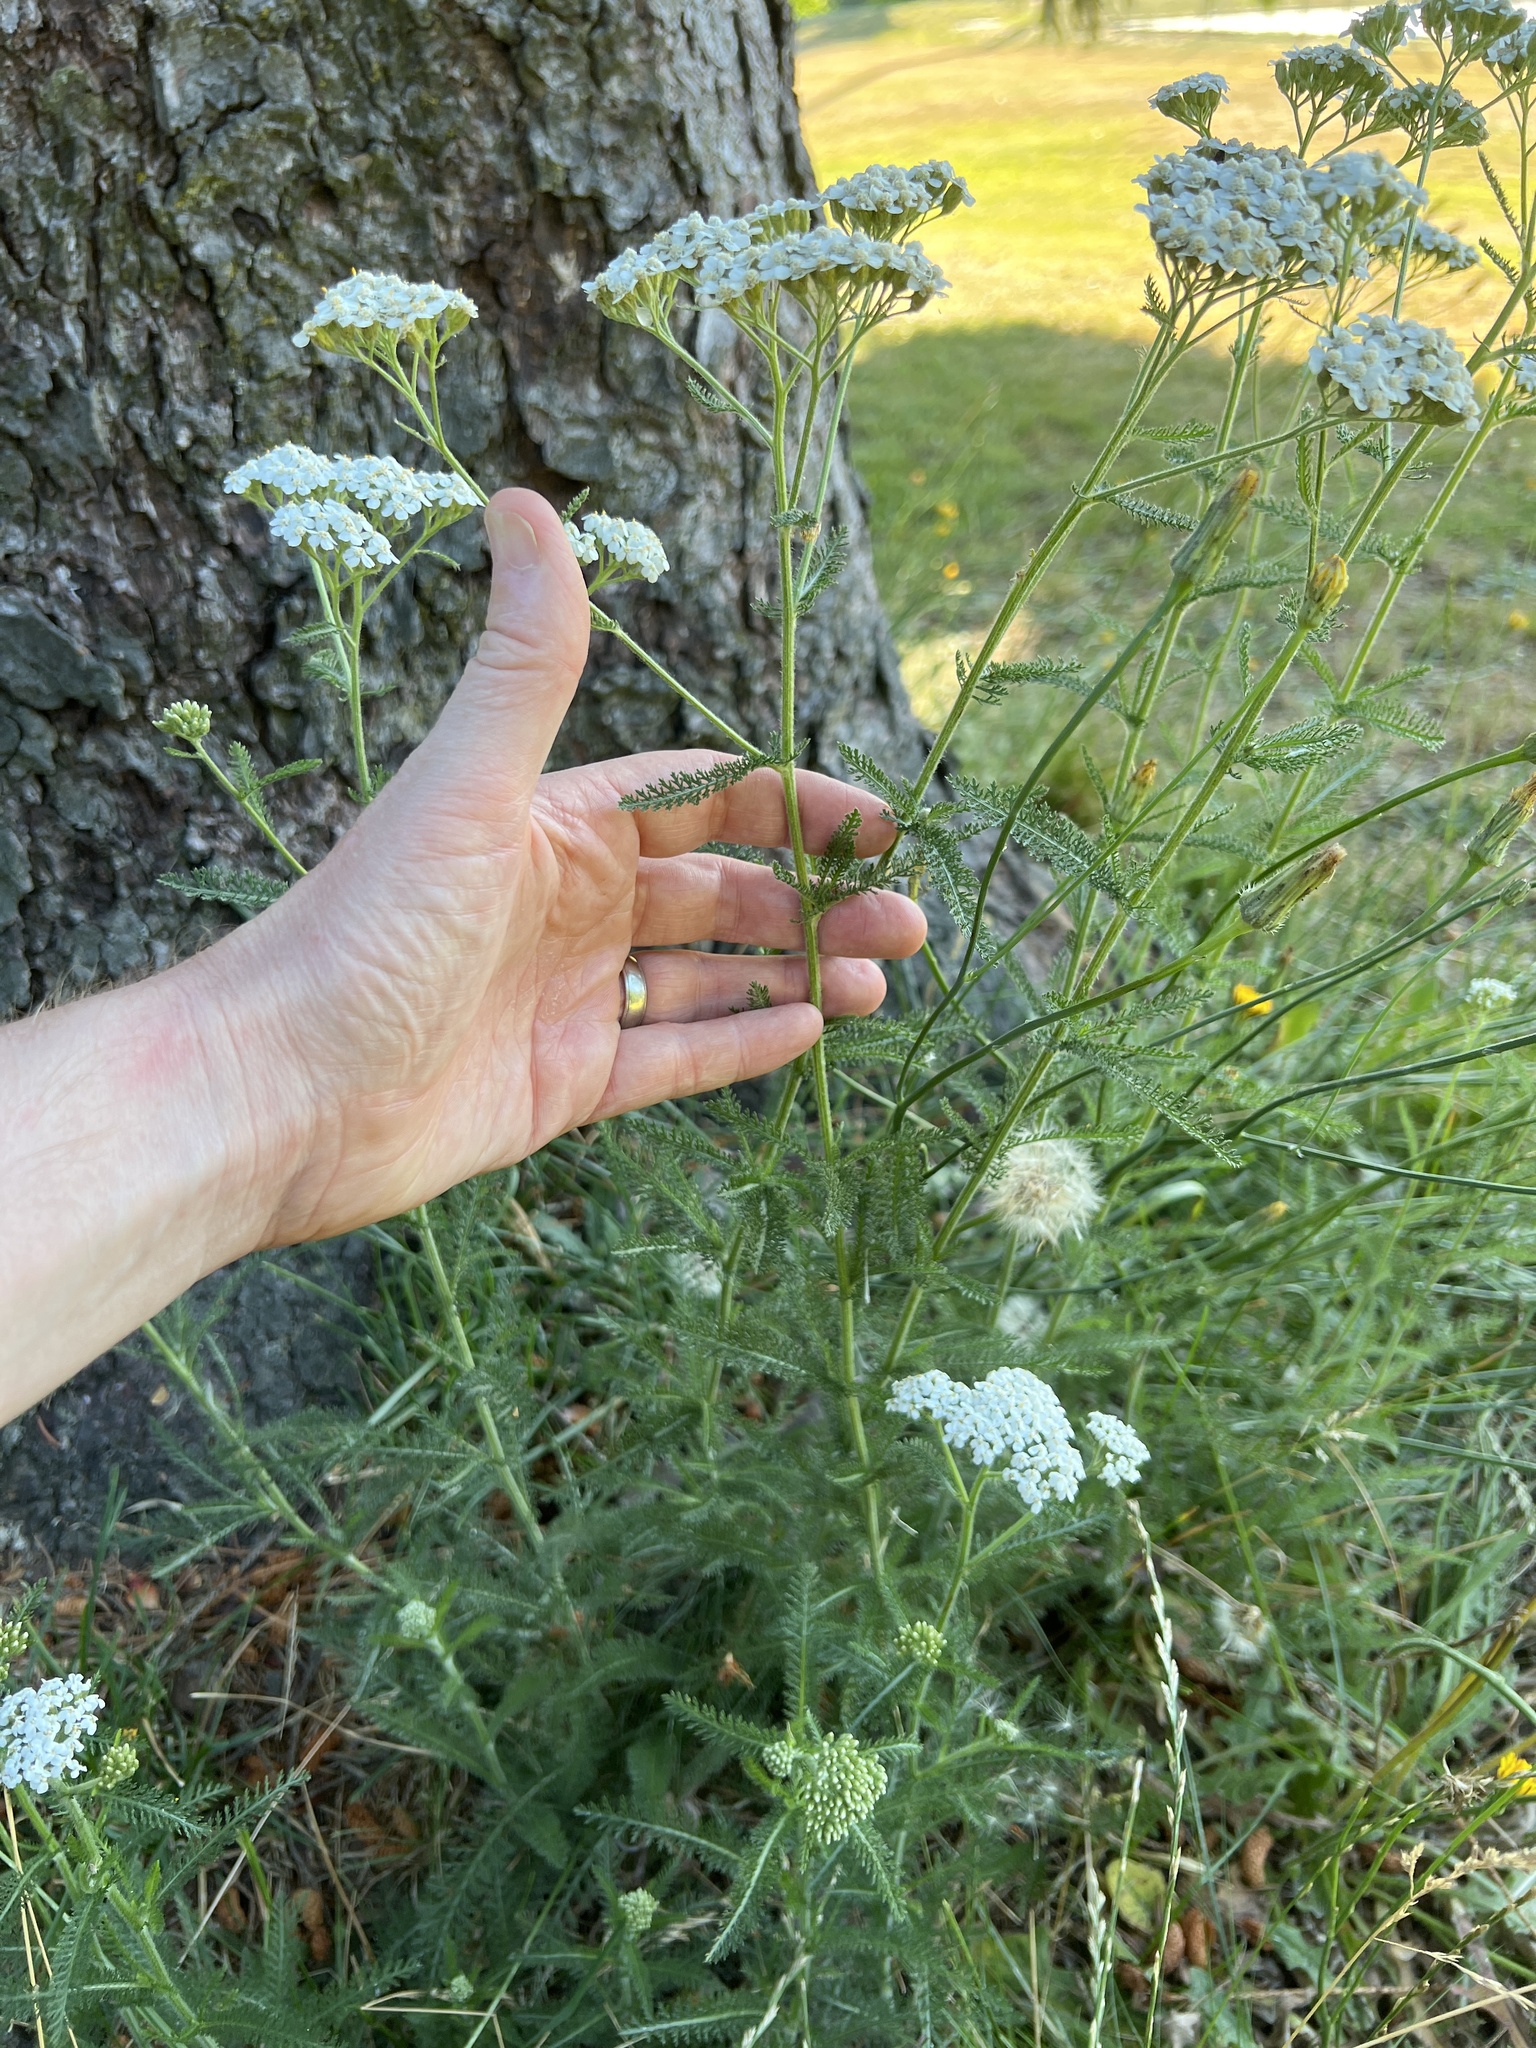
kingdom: Plantae
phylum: Tracheophyta
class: Magnoliopsida
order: Asterales
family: Asteraceae
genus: Achillea
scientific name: Achillea millefolium
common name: Yarrow
